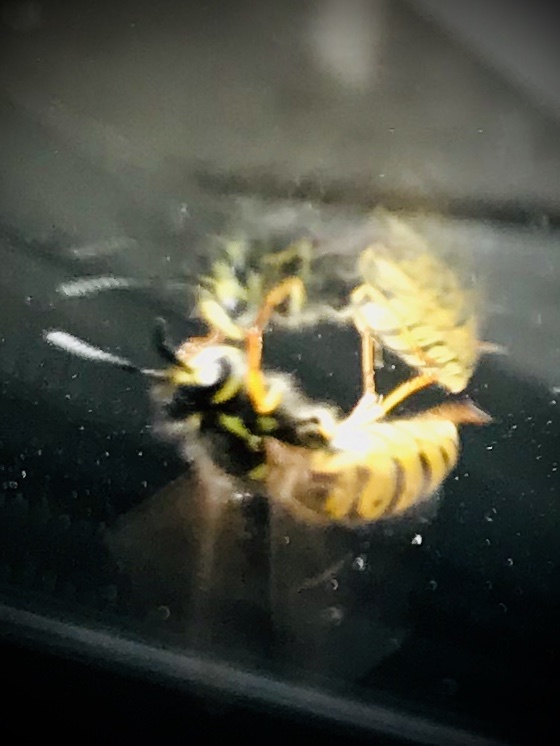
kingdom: Animalia
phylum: Arthropoda
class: Insecta
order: Hymenoptera
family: Vespidae
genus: Vespula
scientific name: Vespula germanica
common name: German wasp
